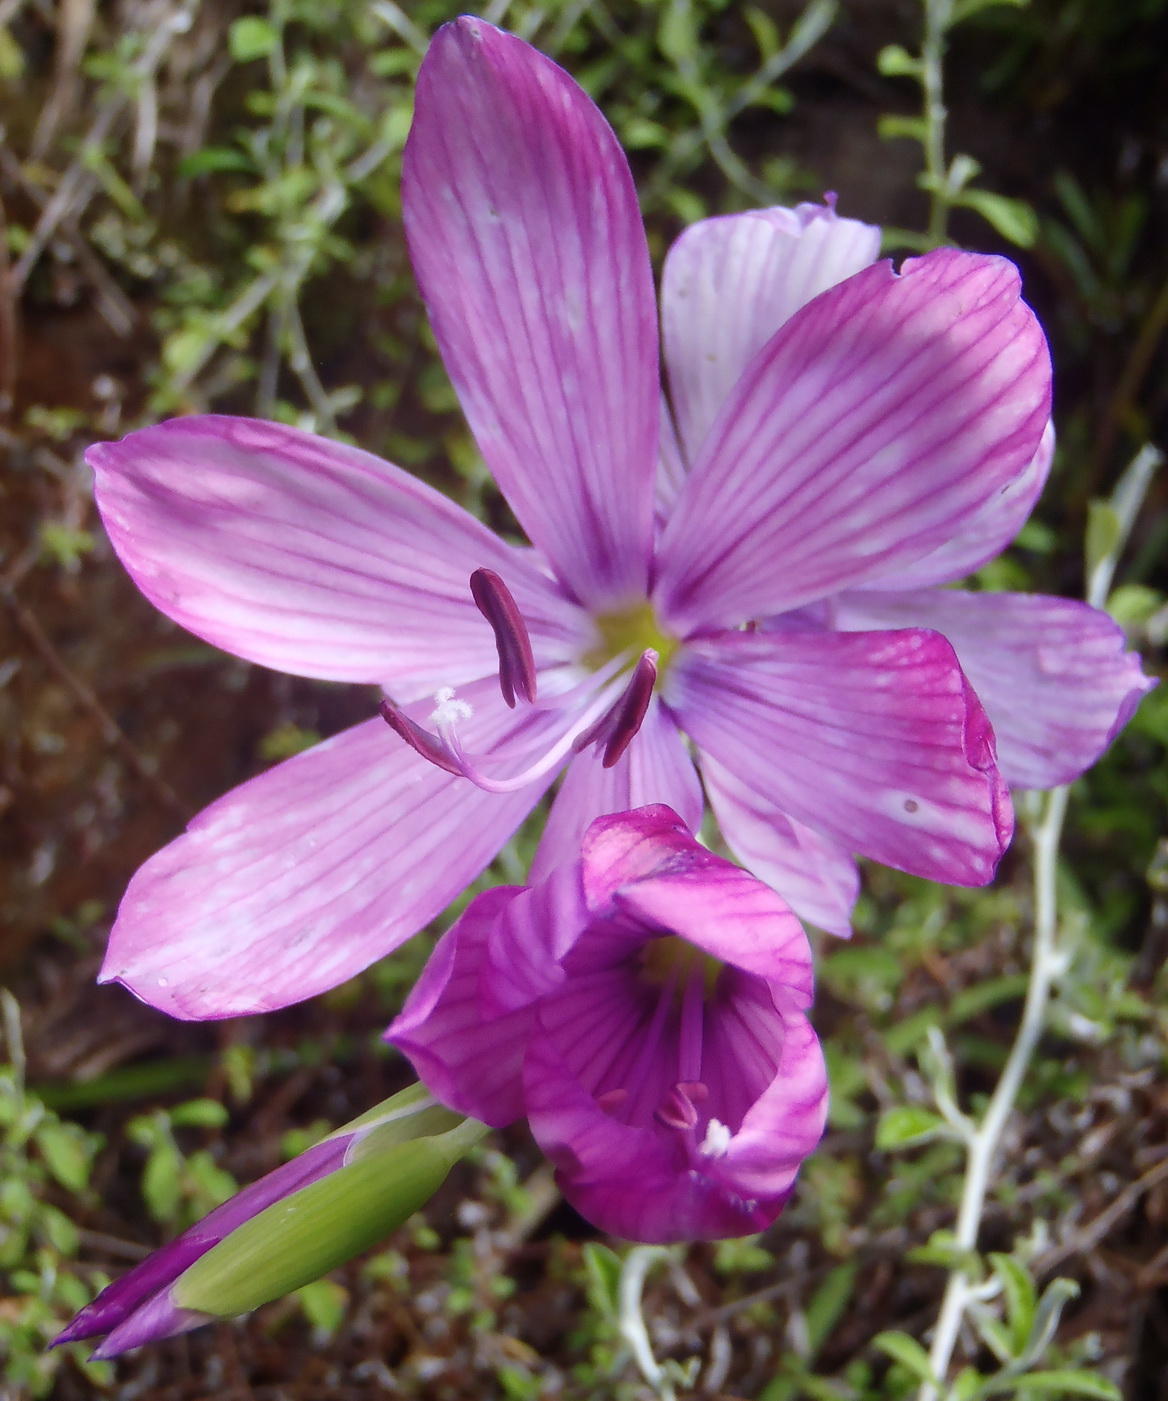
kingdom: Plantae
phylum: Tracheophyta
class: Liliopsida
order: Asparagales
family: Iridaceae
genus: Geissorhiza
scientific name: Geissorhiza outeniquensis
